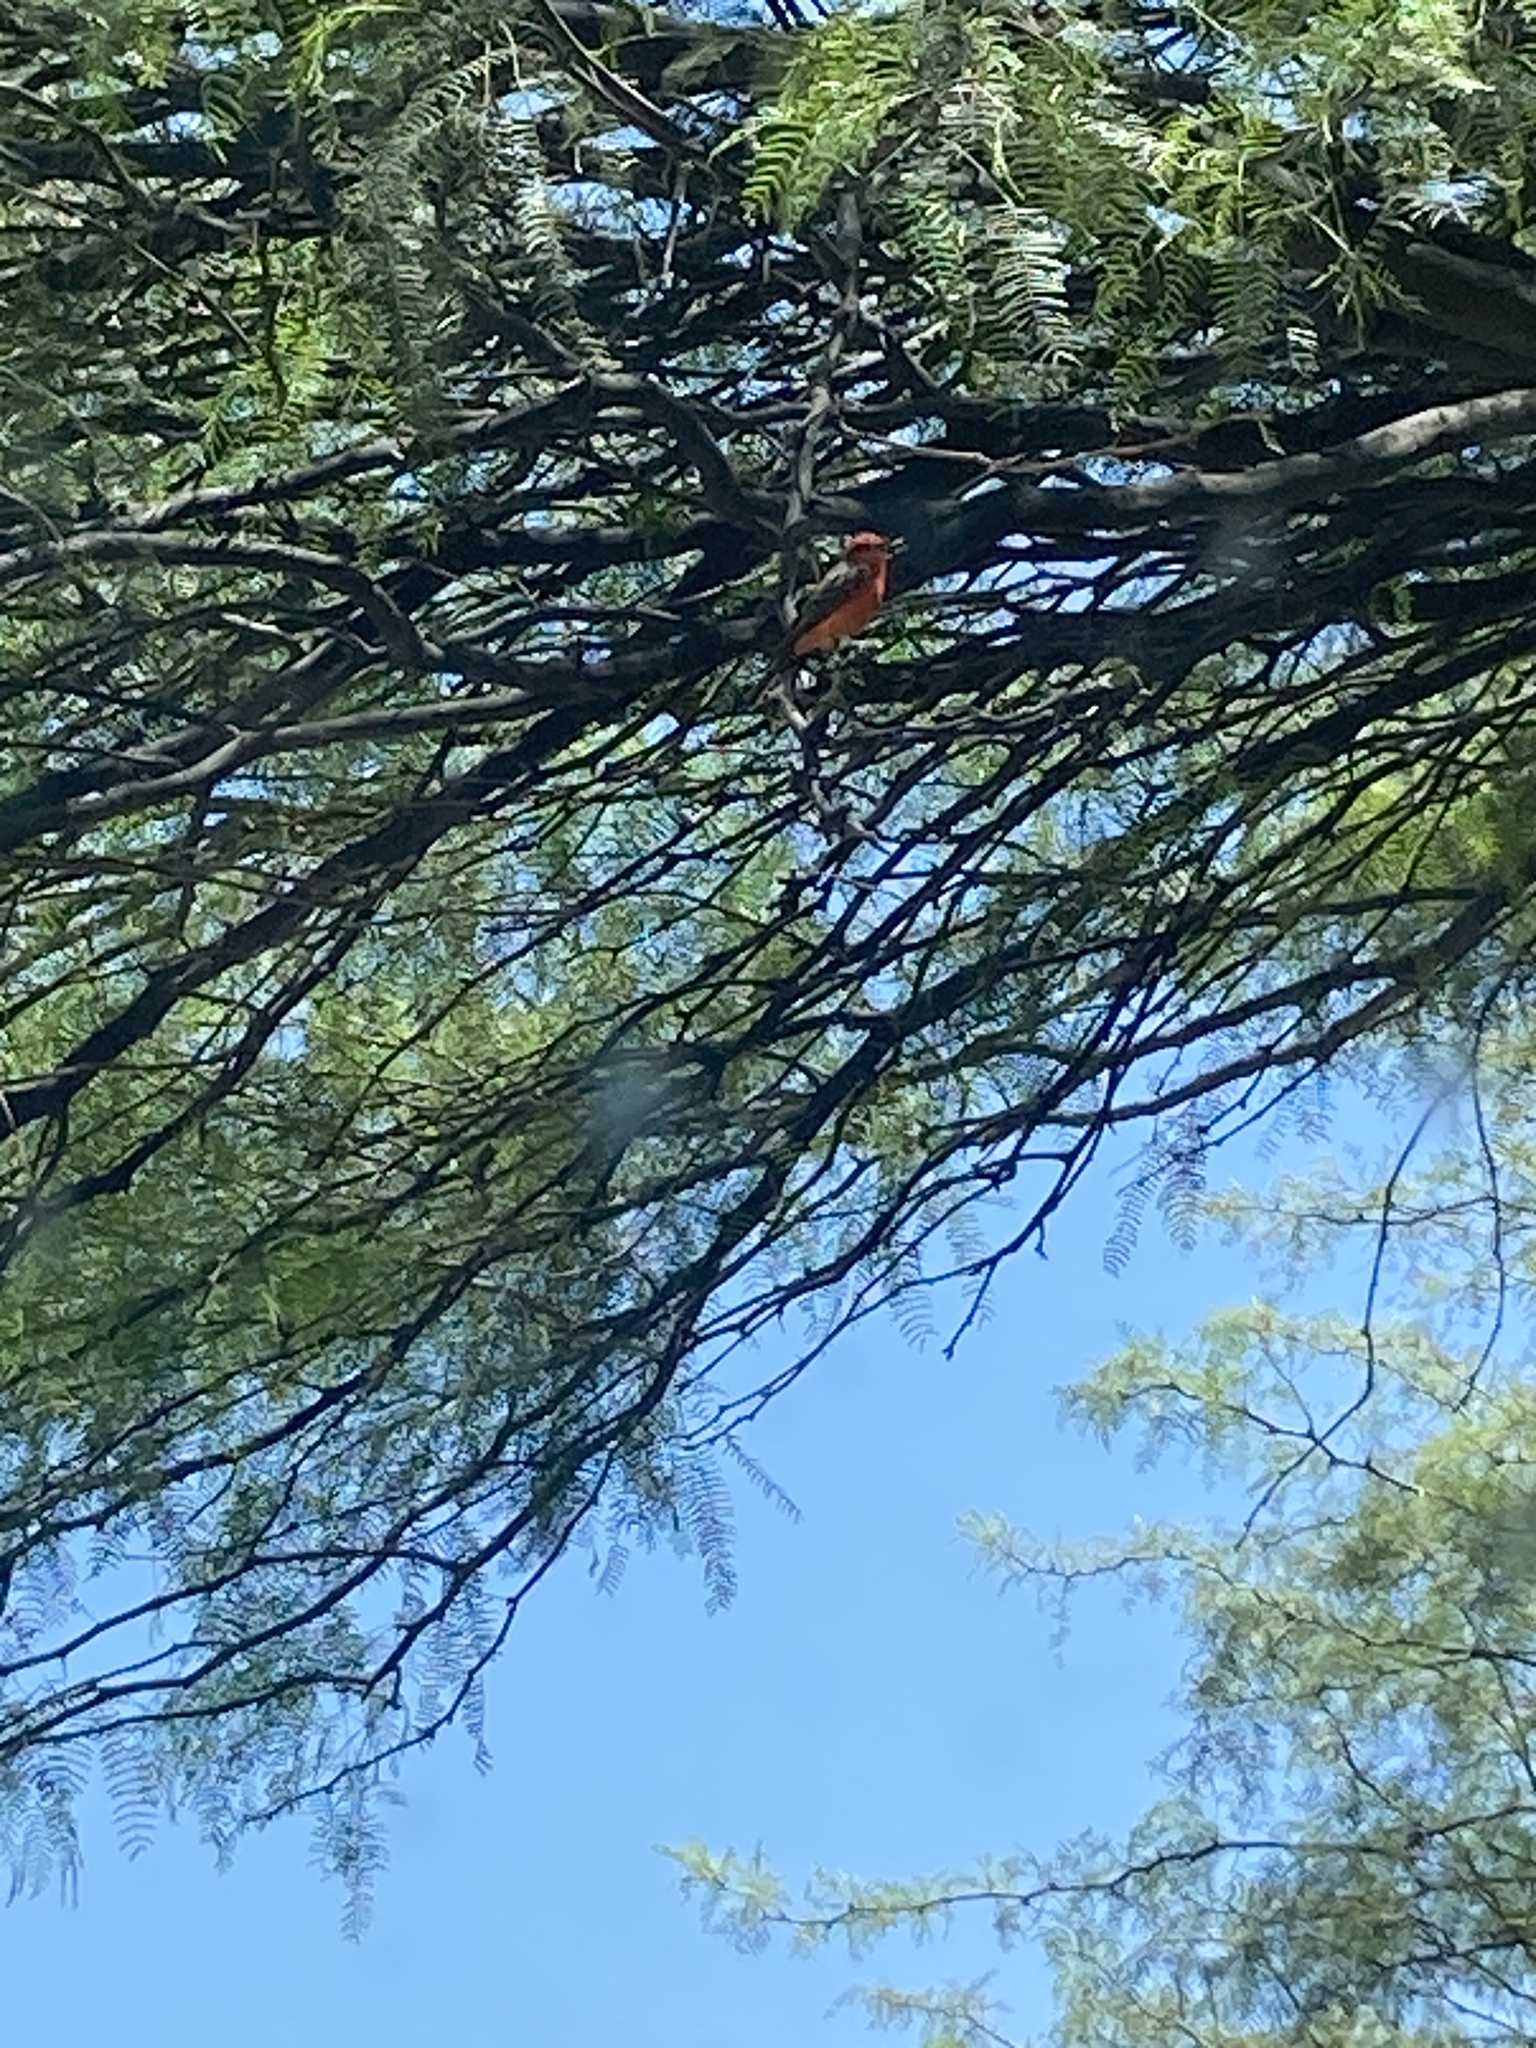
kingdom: Animalia
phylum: Chordata
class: Aves
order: Passeriformes
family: Tyrannidae
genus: Pyrocephalus
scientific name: Pyrocephalus rubinus
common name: Vermilion flycatcher
